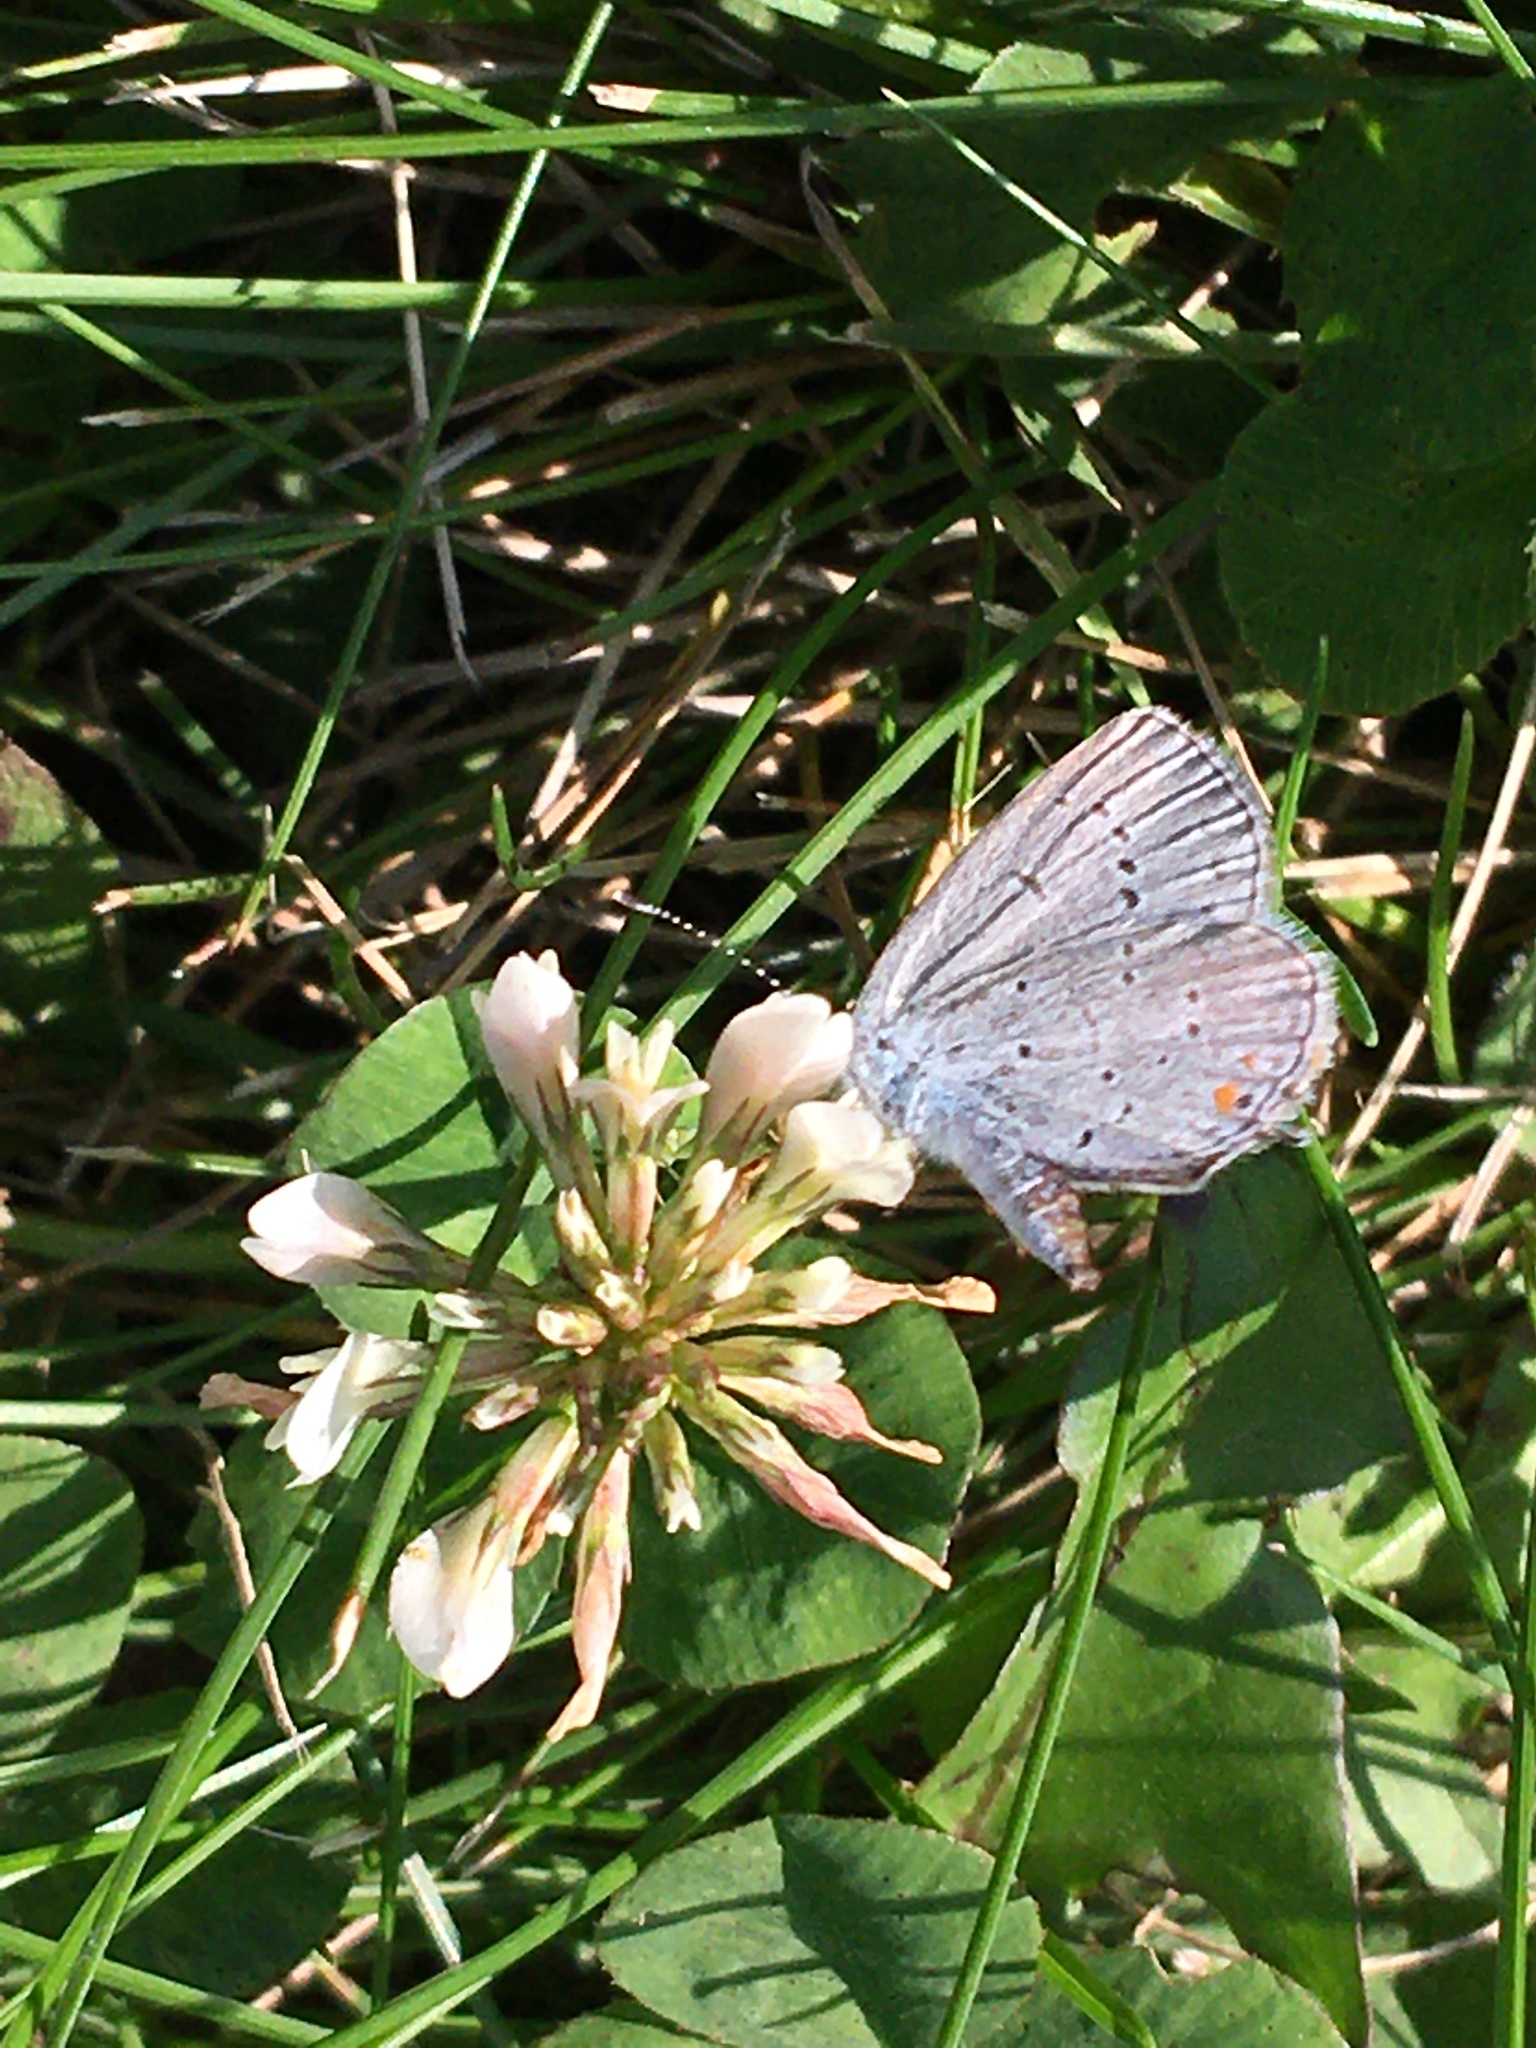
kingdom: Animalia
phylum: Arthropoda
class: Insecta
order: Lepidoptera
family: Lycaenidae
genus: Elkalyce
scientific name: Elkalyce comyntas
